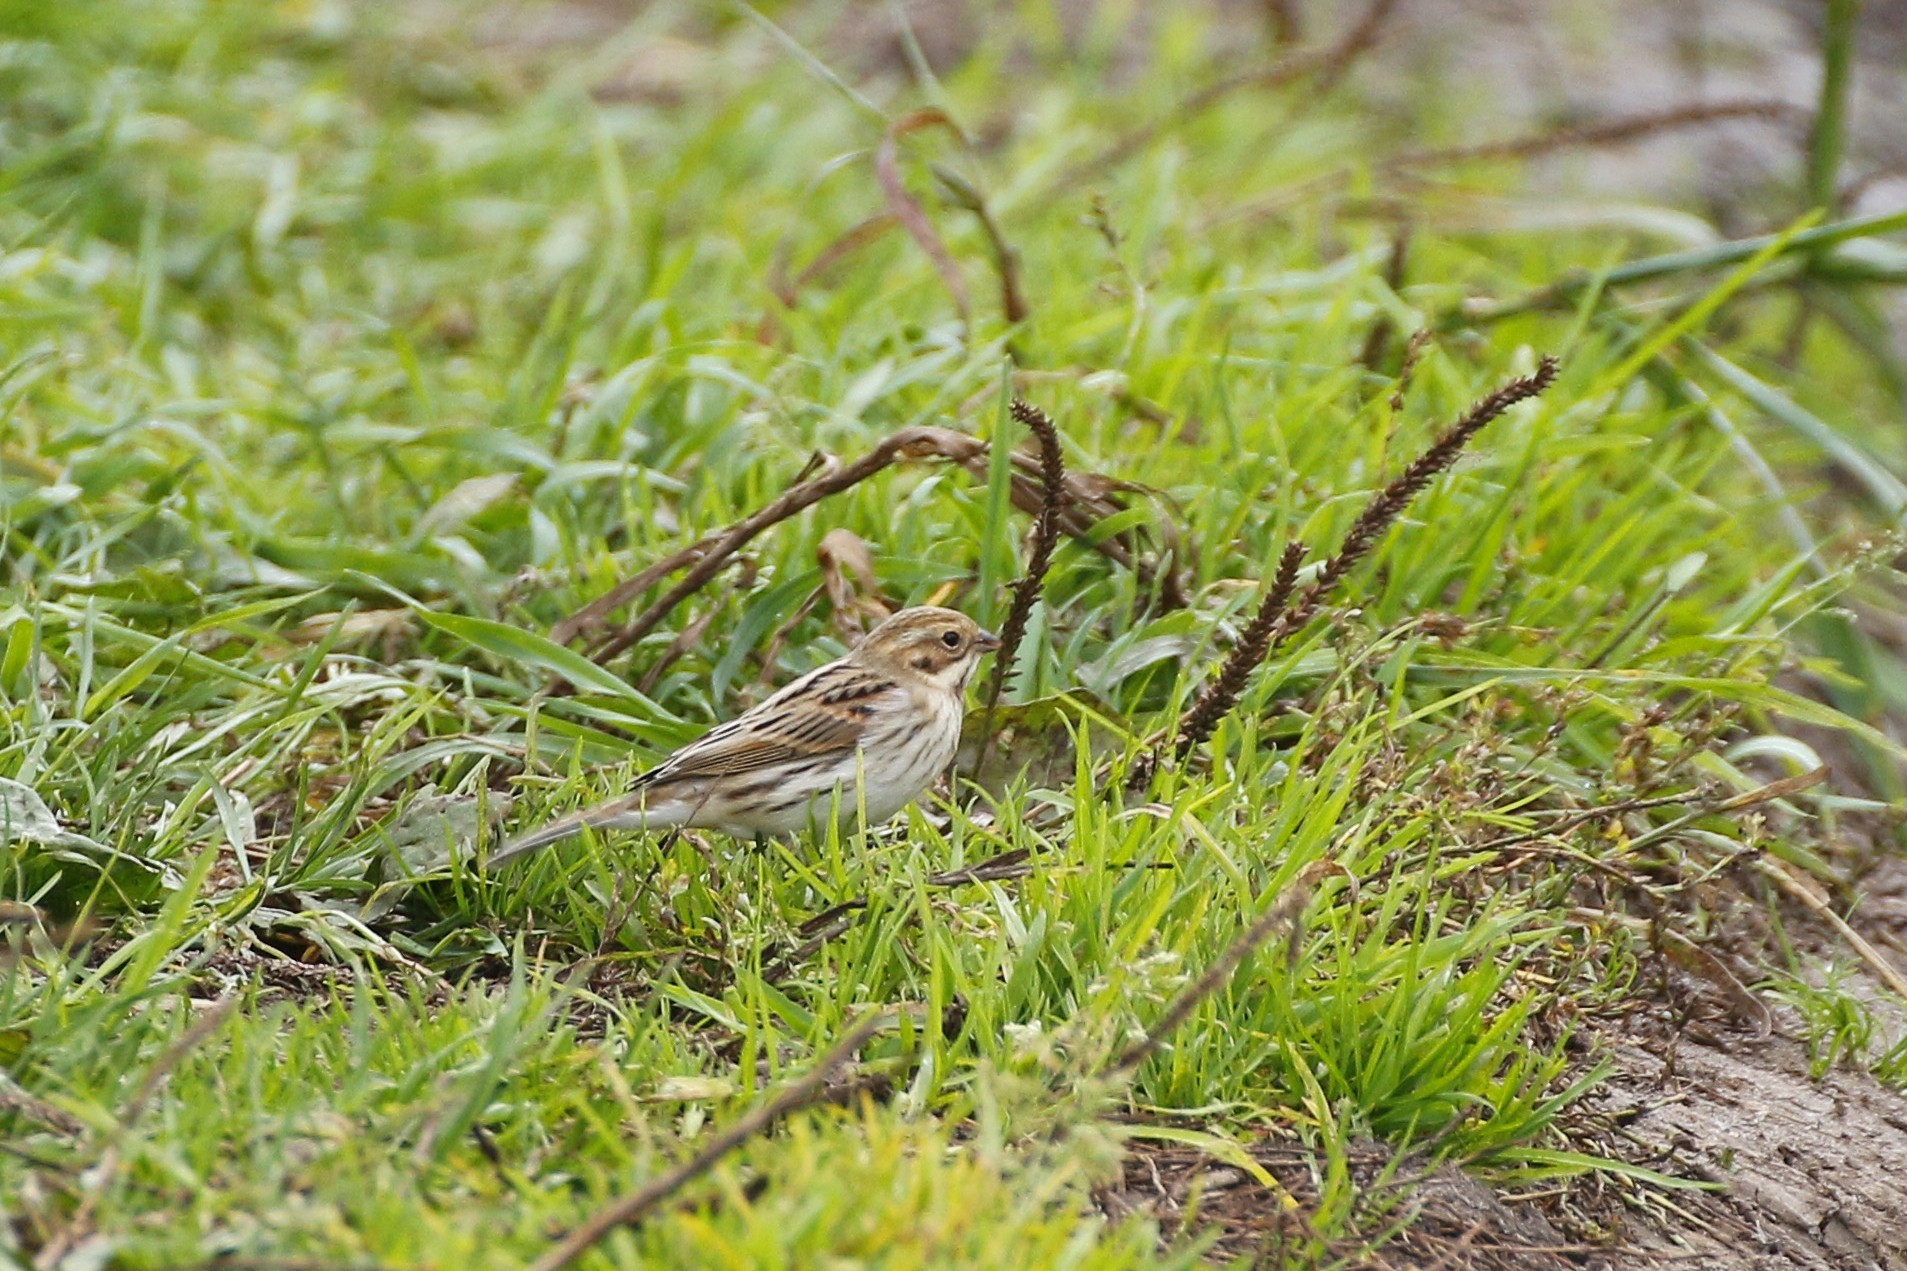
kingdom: Animalia
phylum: Chordata
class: Aves
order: Passeriformes
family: Emberizidae
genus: Emberiza
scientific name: Emberiza schoeniclus
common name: Reed bunting
